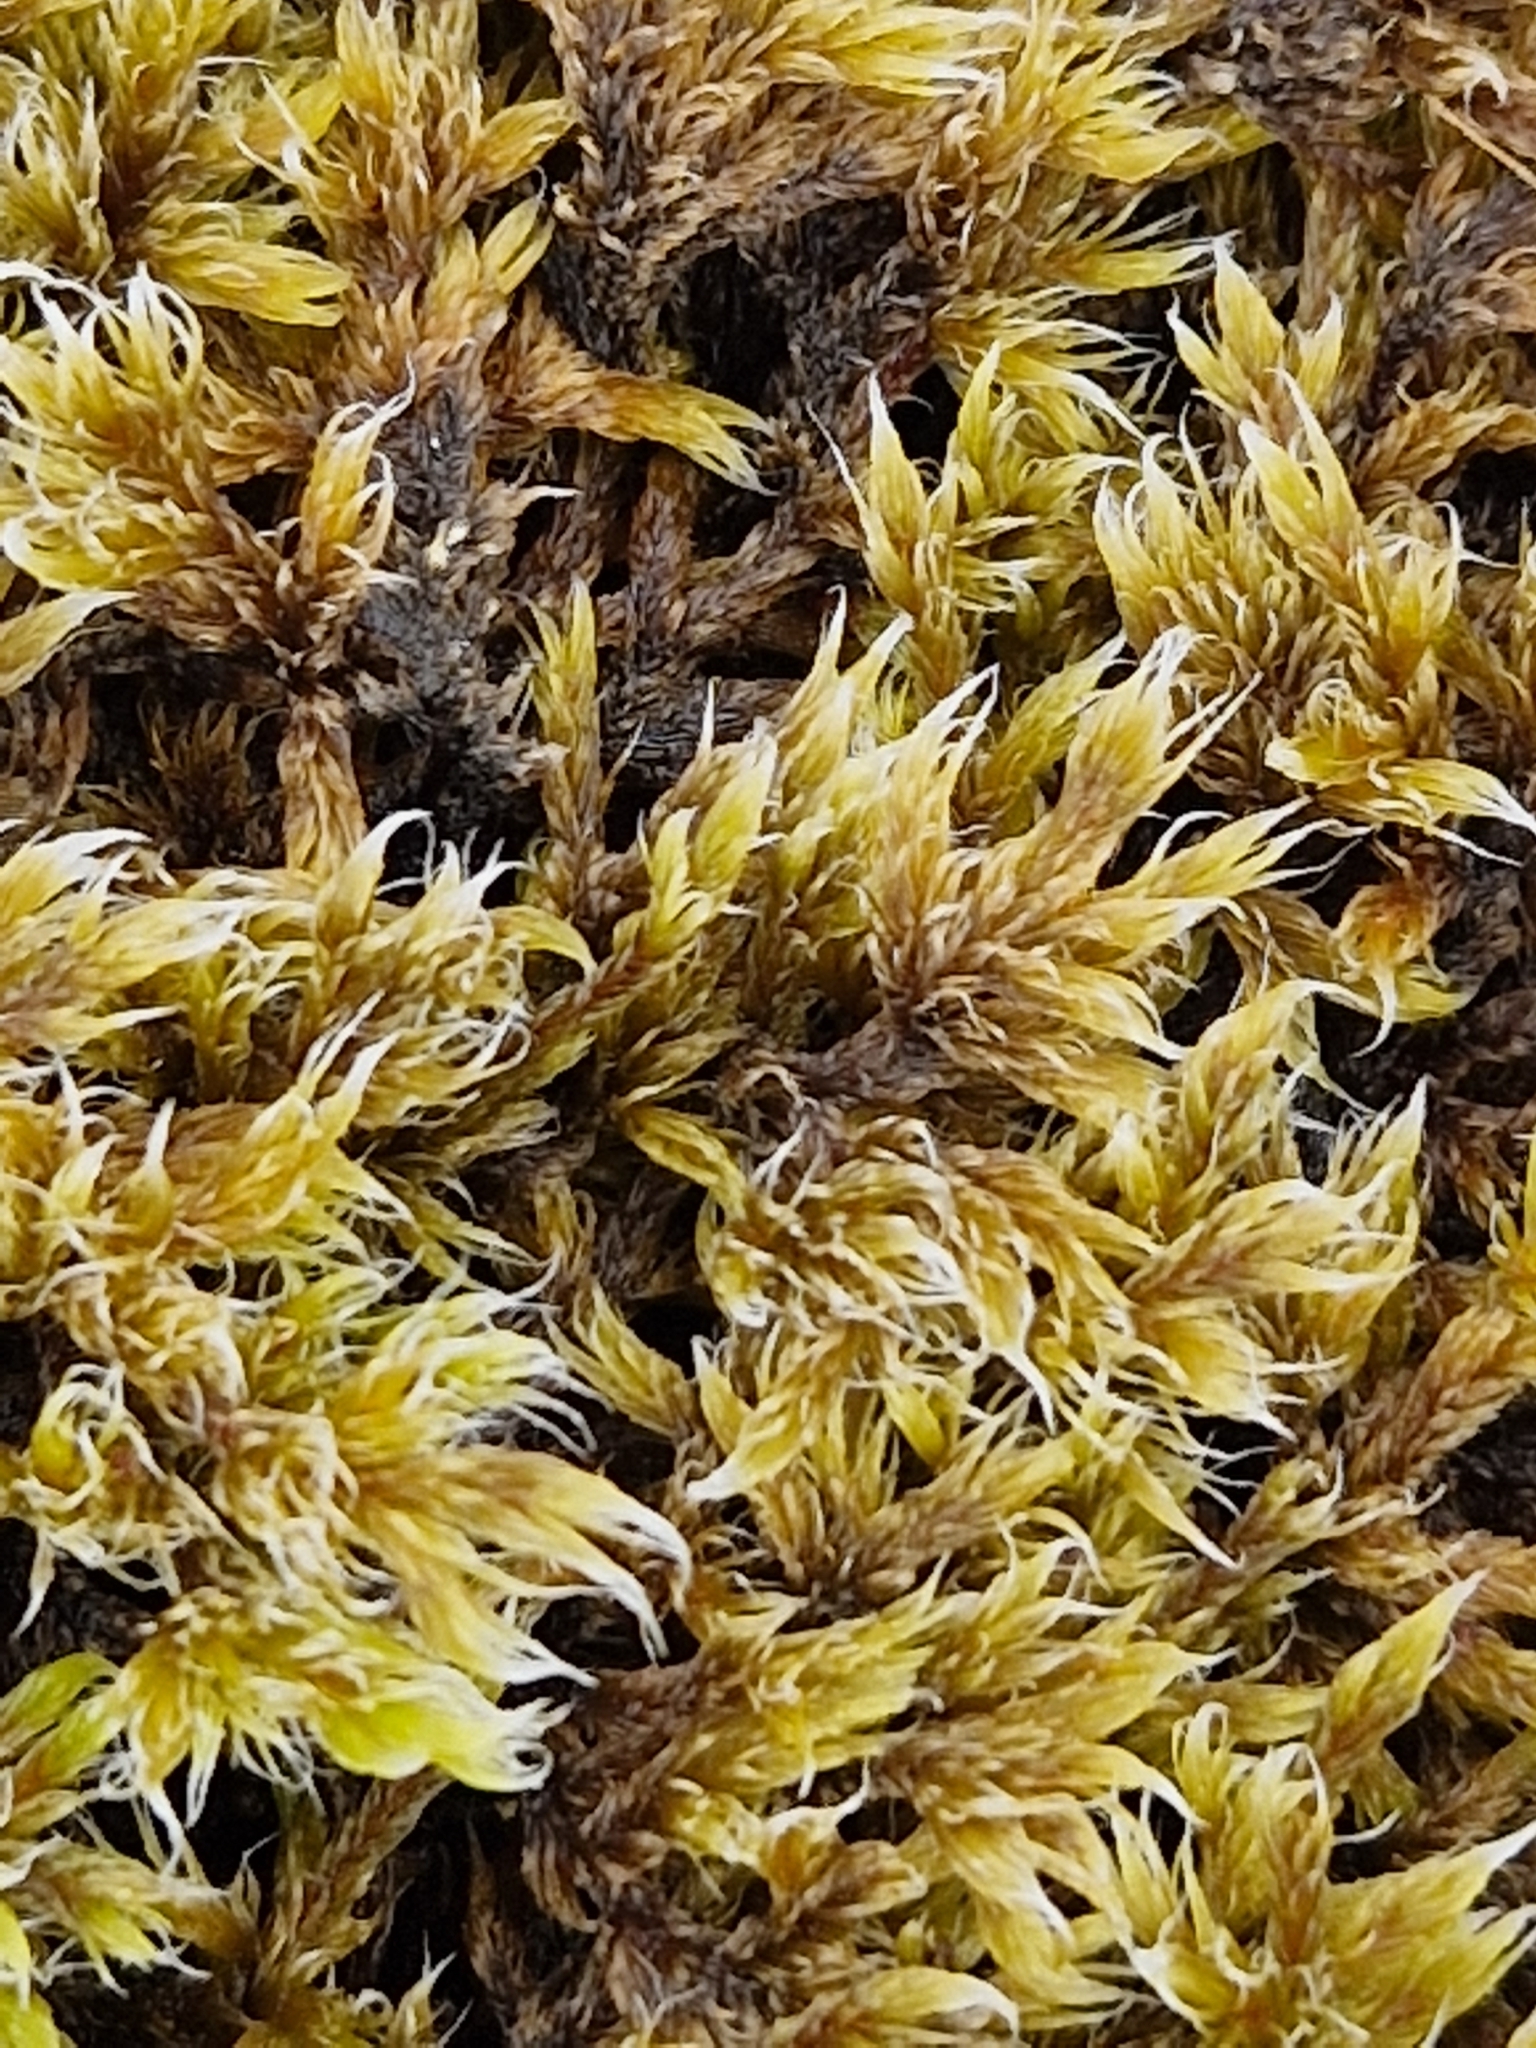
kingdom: Plantae
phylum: Bryophyta
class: Bryopsida
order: Grimmiales
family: Grimmiaceae
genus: Racomitrium
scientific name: Racomitrium lanuginosum
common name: Hoary rock moss
